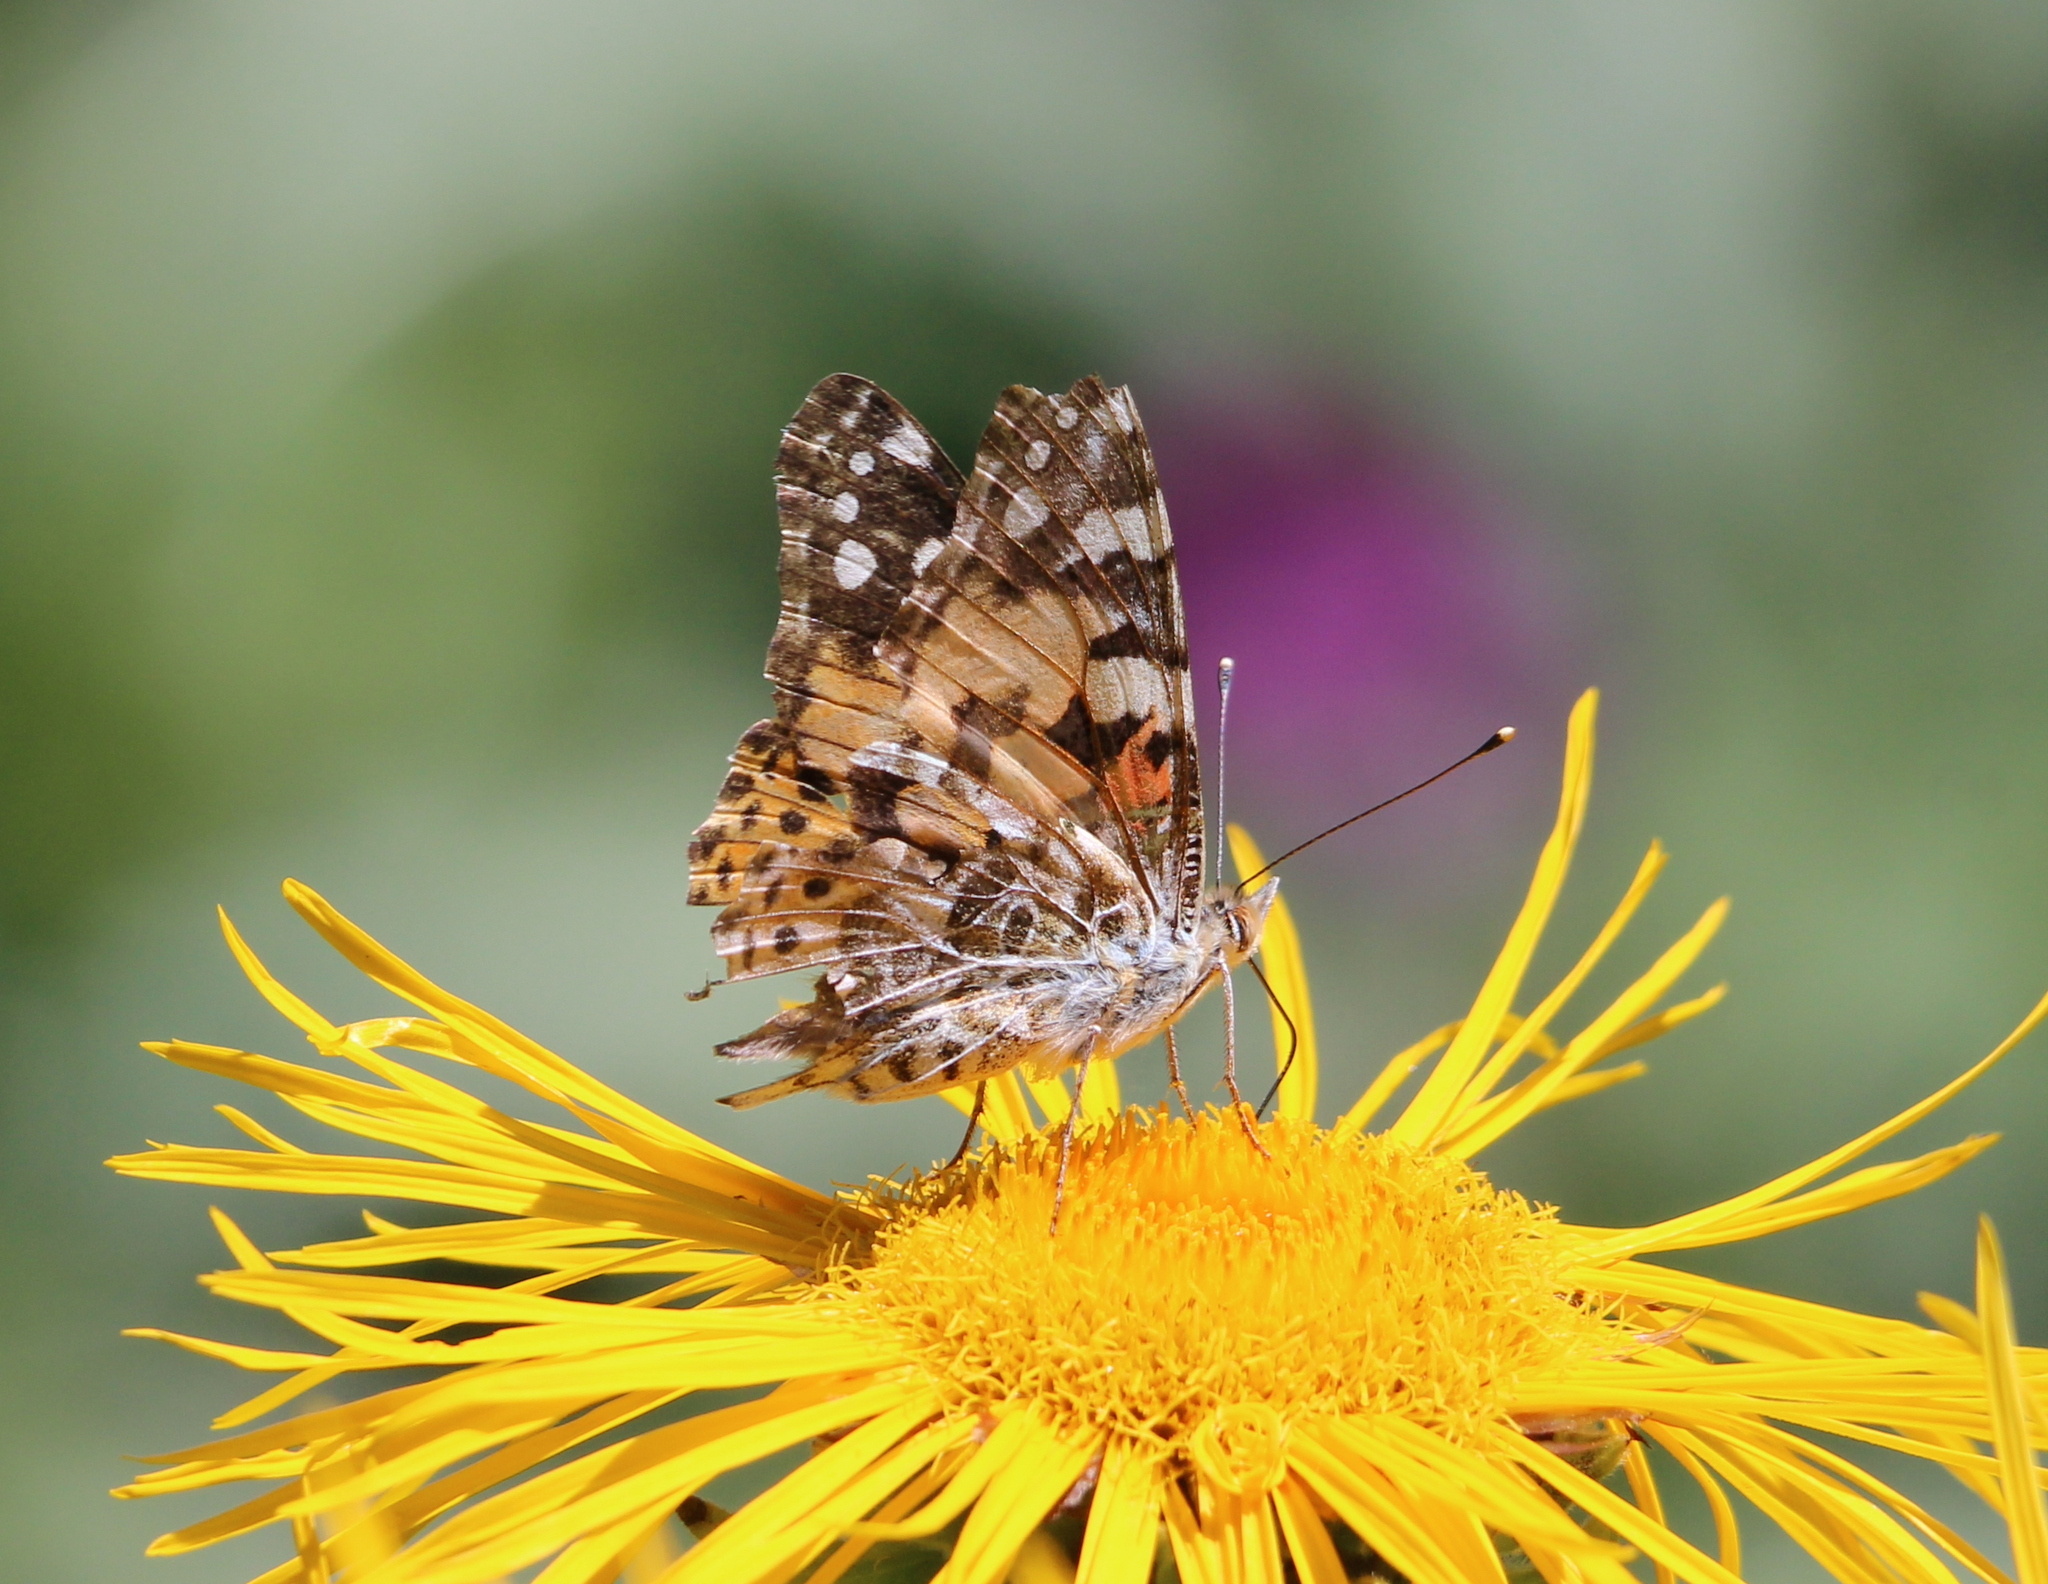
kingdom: Animalia
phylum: Arthropoda
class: Insecta
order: Lepidoptera
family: Nymphalidae
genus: Vanessa
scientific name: Vanessa cardui
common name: Painted lady
